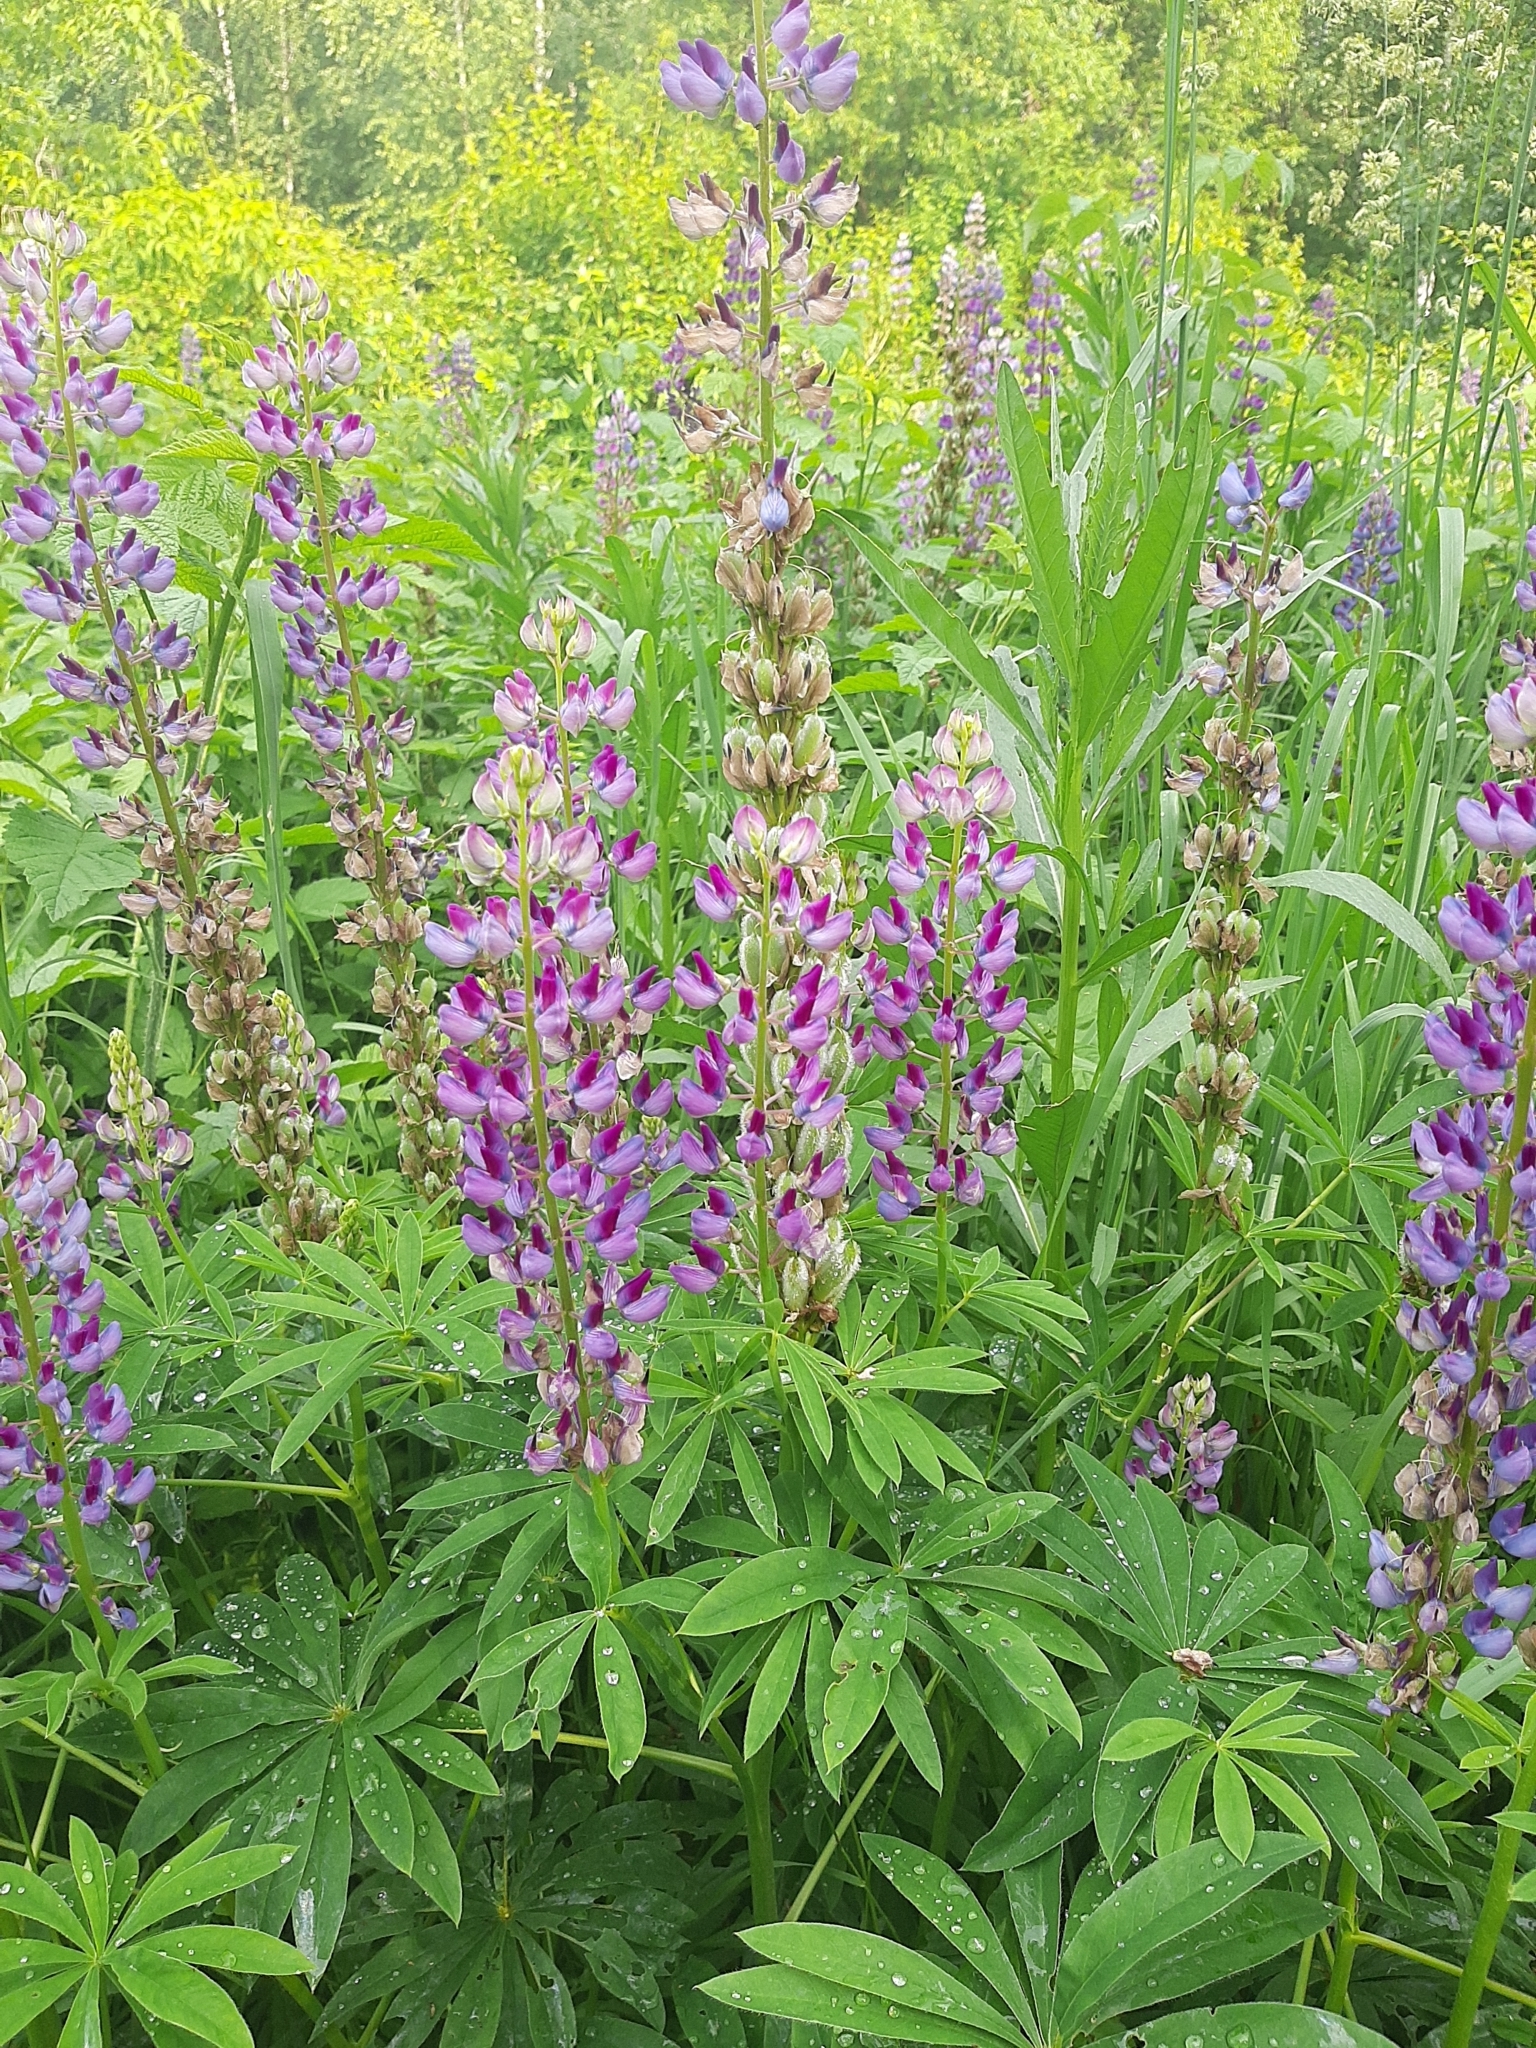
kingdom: Plantae
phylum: Tracheophyta
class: Magnoliopsida
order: Fabales
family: Fabaceae
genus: Lupinus
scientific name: Lupinus polyphyllus
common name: Garden lupin
